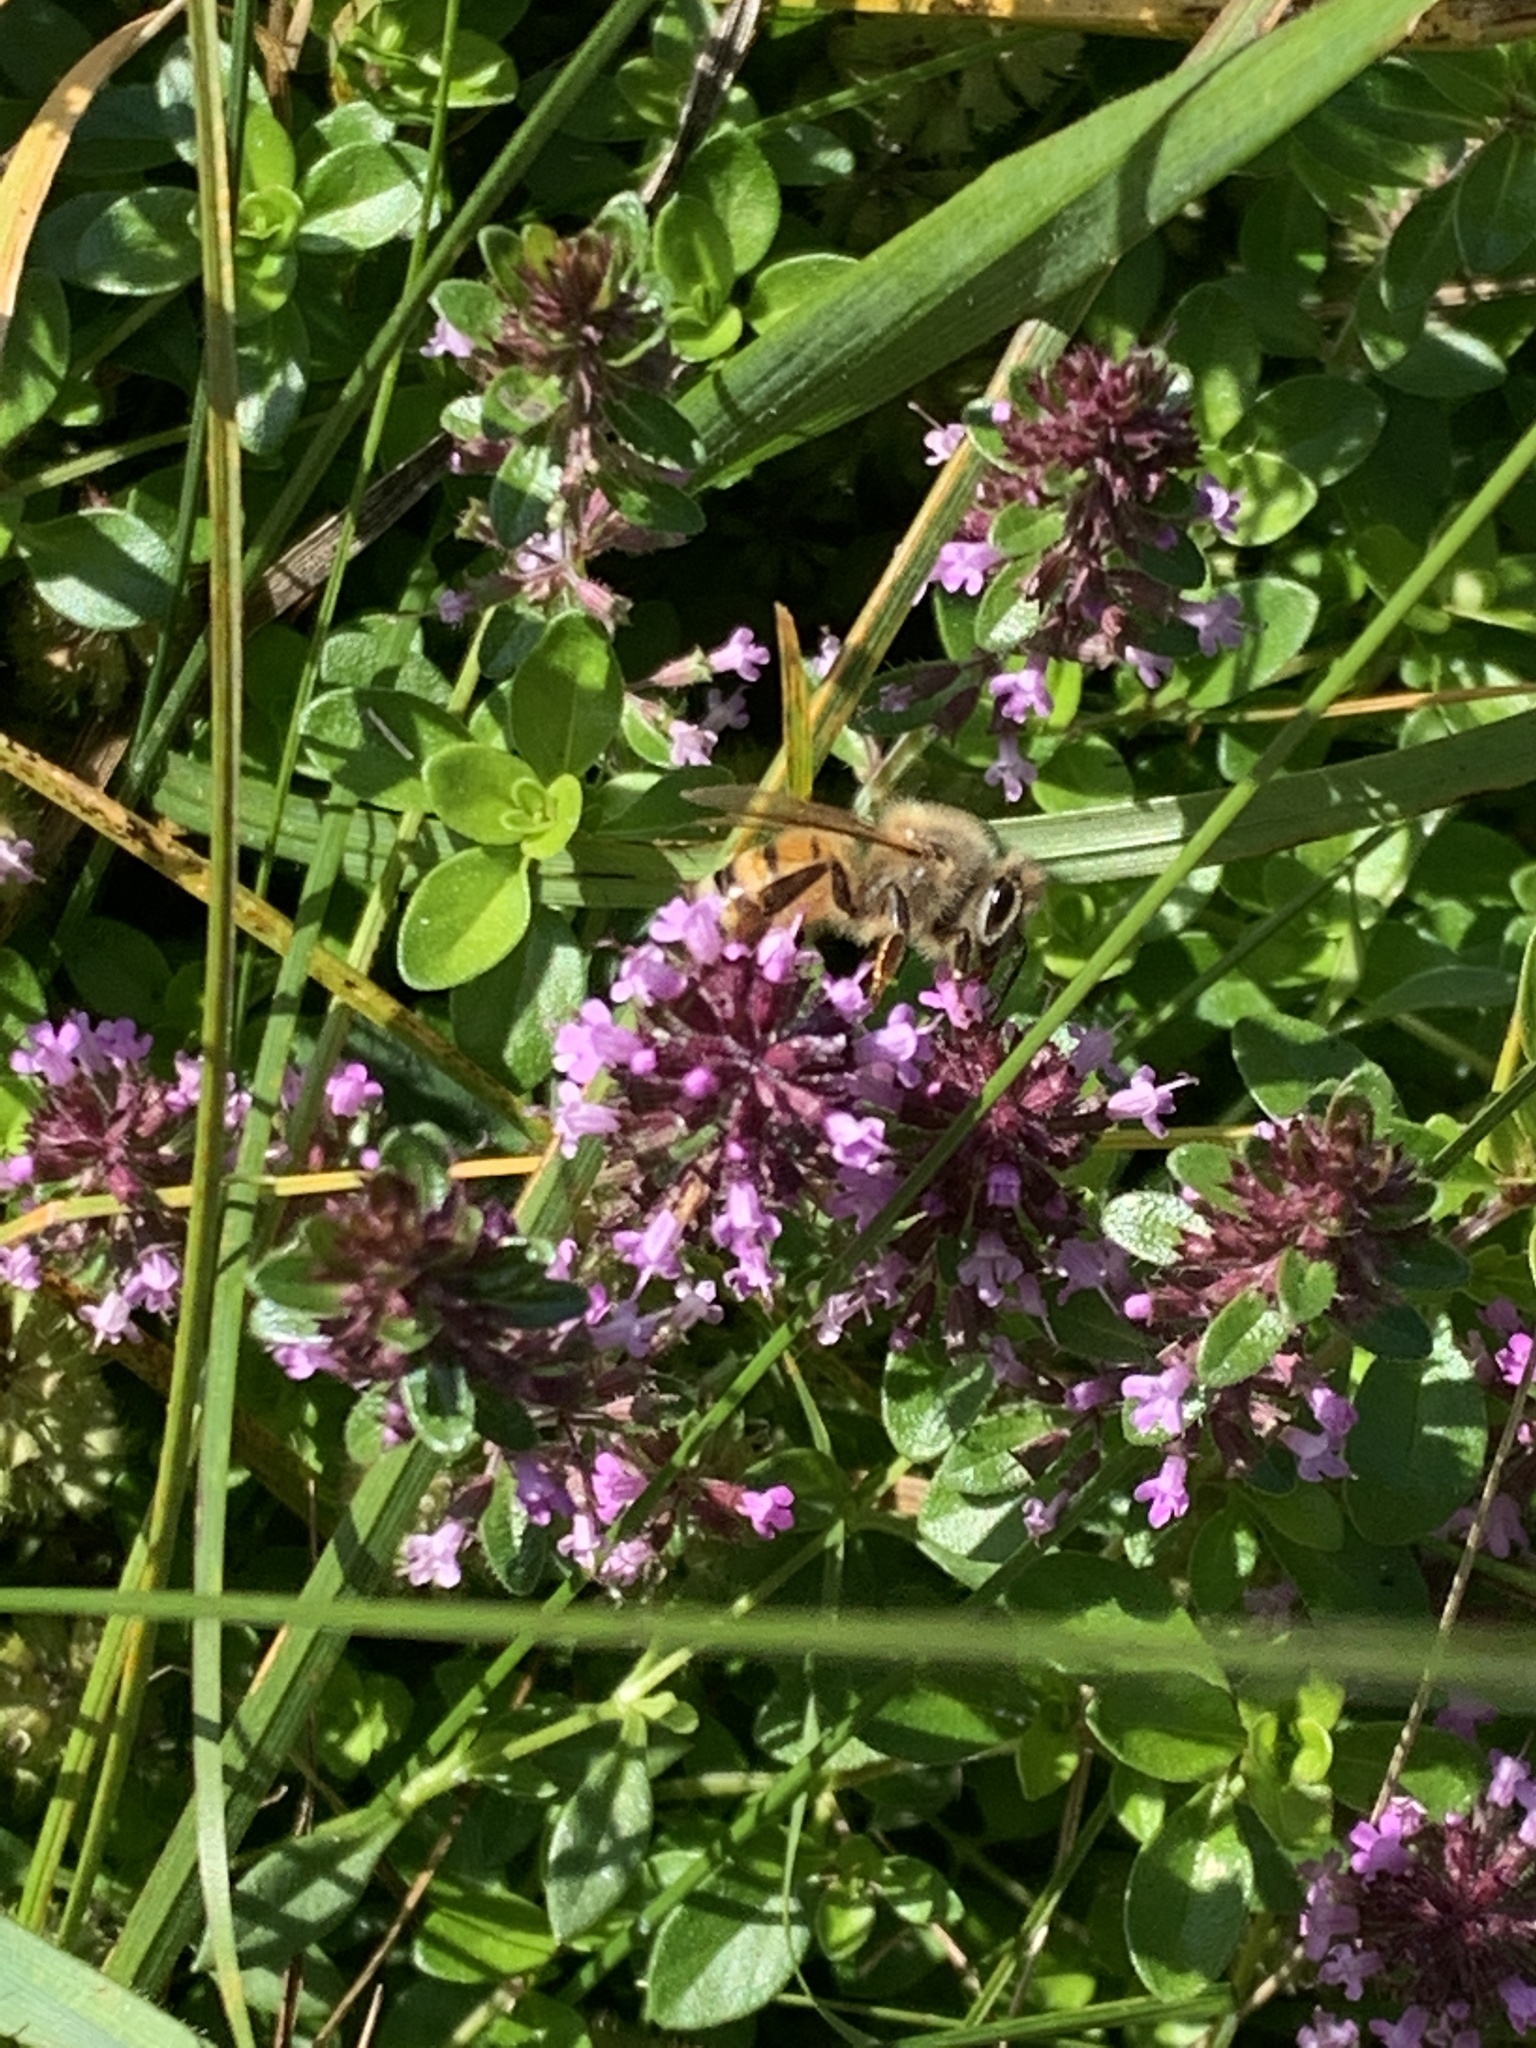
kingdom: Animalia
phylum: Arthropoda
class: Insecta
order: Hymenoptera
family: Apidae
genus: Apis
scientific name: Apis mellifera
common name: Honey bee
